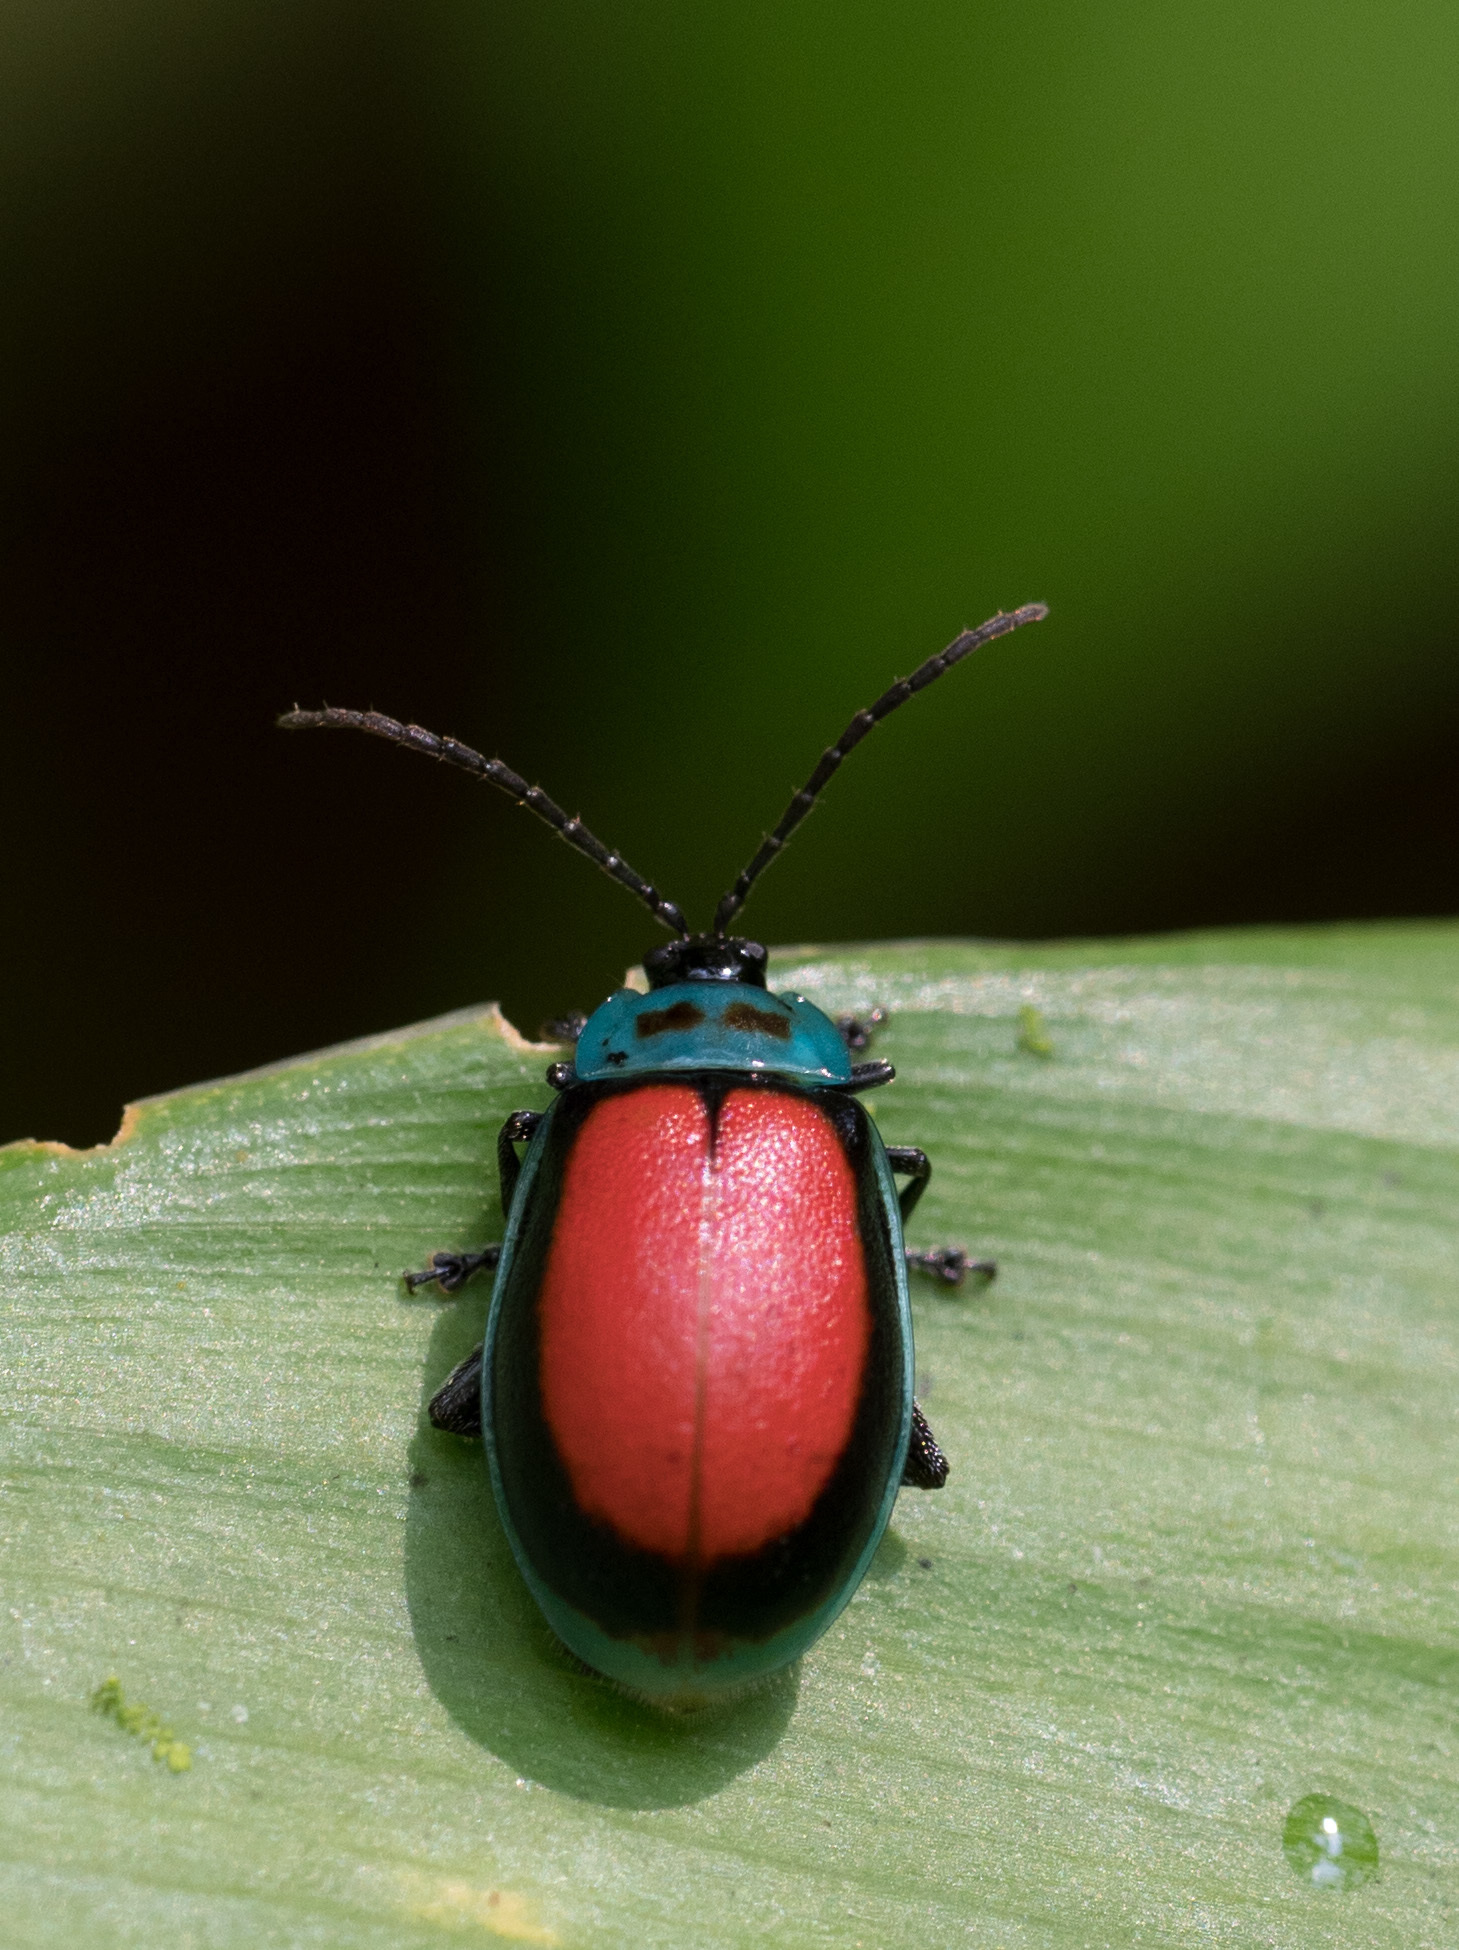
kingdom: Animalia
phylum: Arthropoda
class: Insecta
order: Coleoptera
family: Chrysomelidae
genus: Aspicela
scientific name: Aspicela
